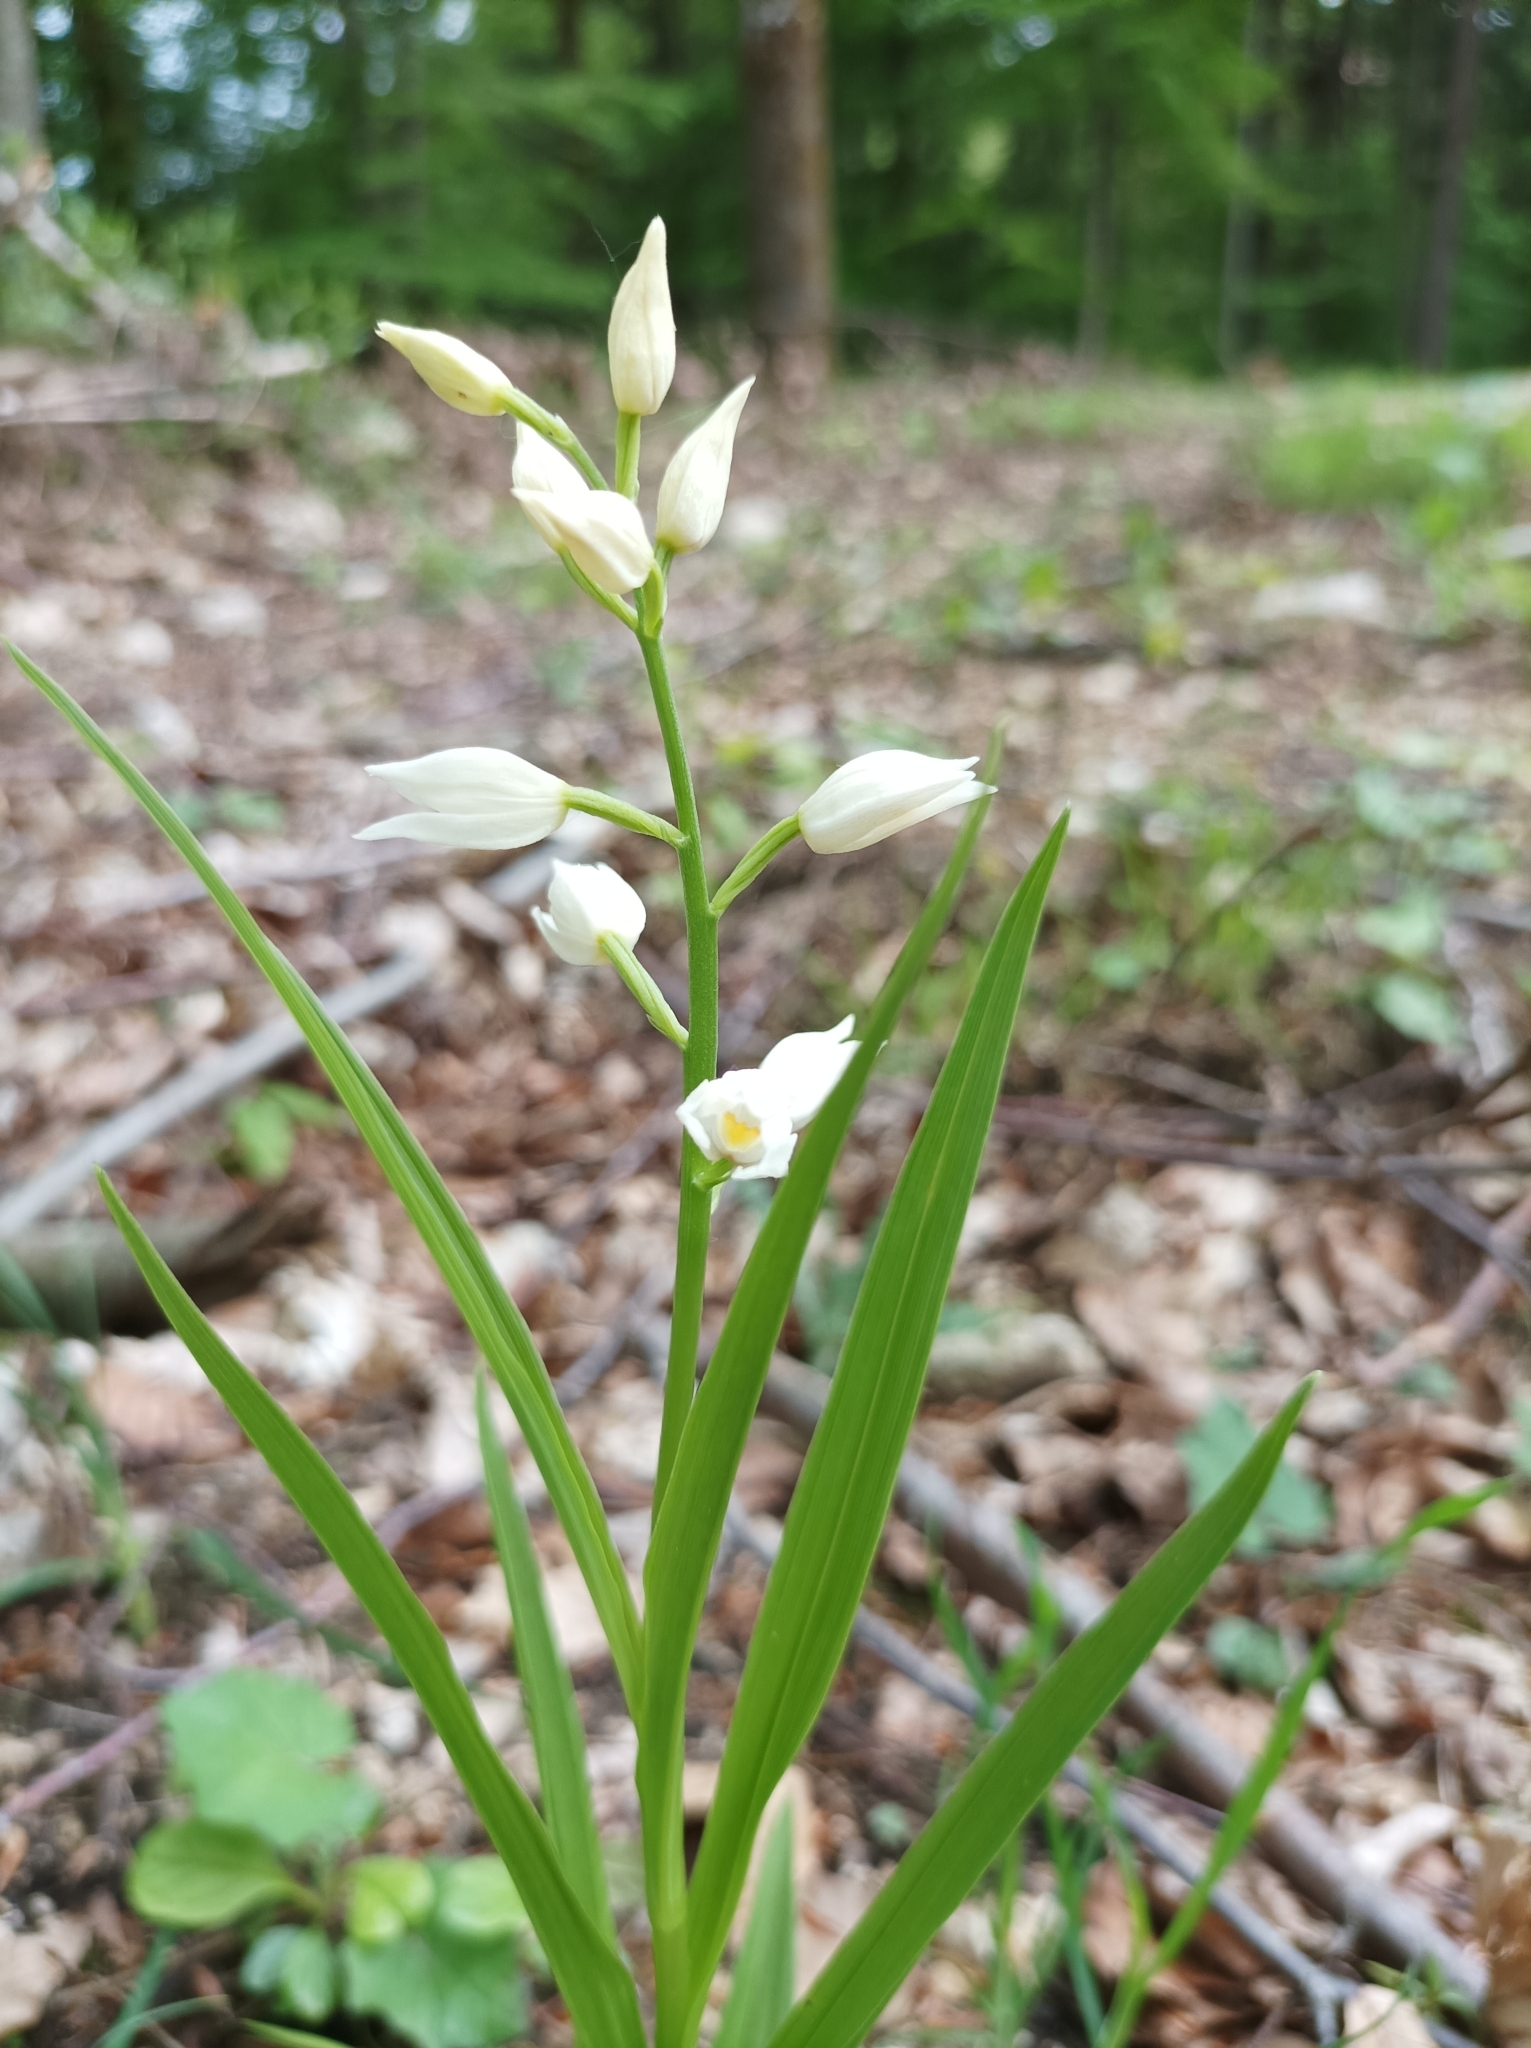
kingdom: Plantae
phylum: Tracheophyta
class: Liliopsida
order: Asparagales
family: Orchidaceae
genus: Cephalanthera
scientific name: Cephalanthera longifolia
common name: Narrow-leaved helleborine
